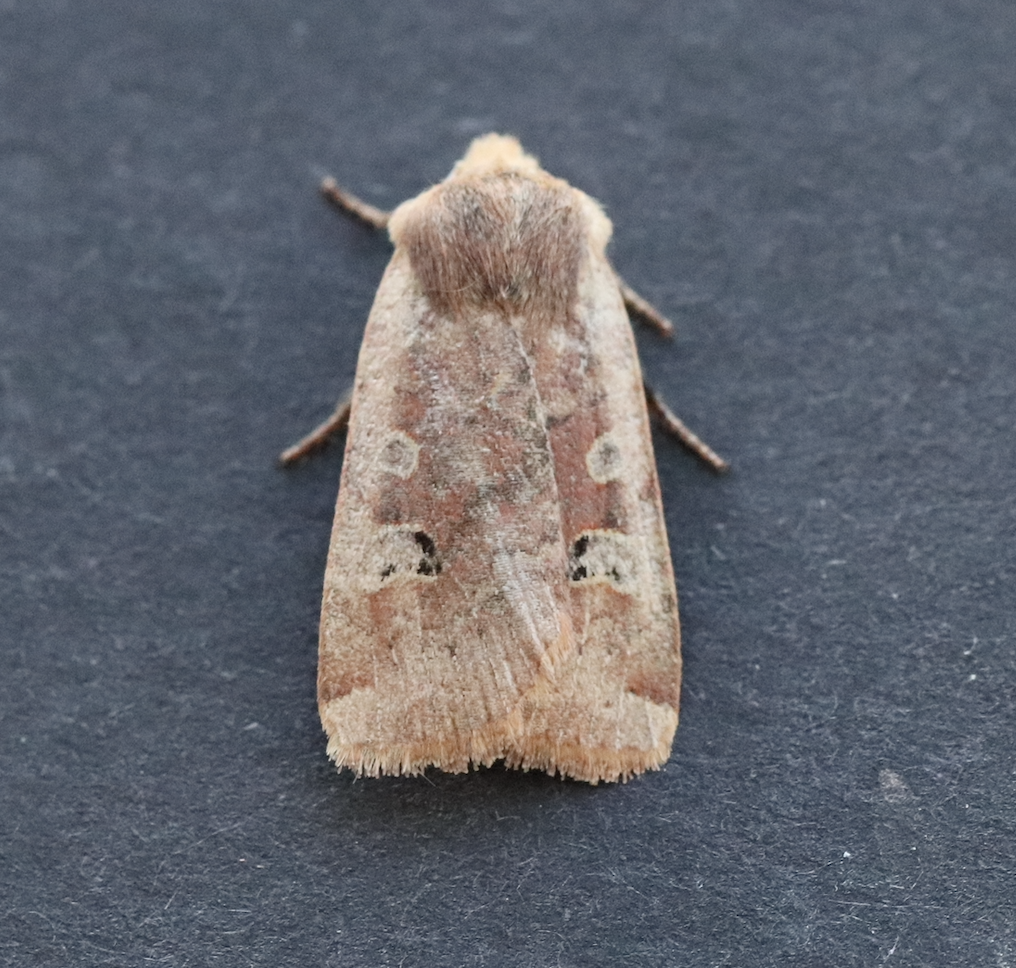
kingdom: Animalia
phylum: Arthropoda
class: Insecta
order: Lepidoptera
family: Noctuidae
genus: Conistra
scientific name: Conistra erythrocephala
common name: Red-headed chestnut
